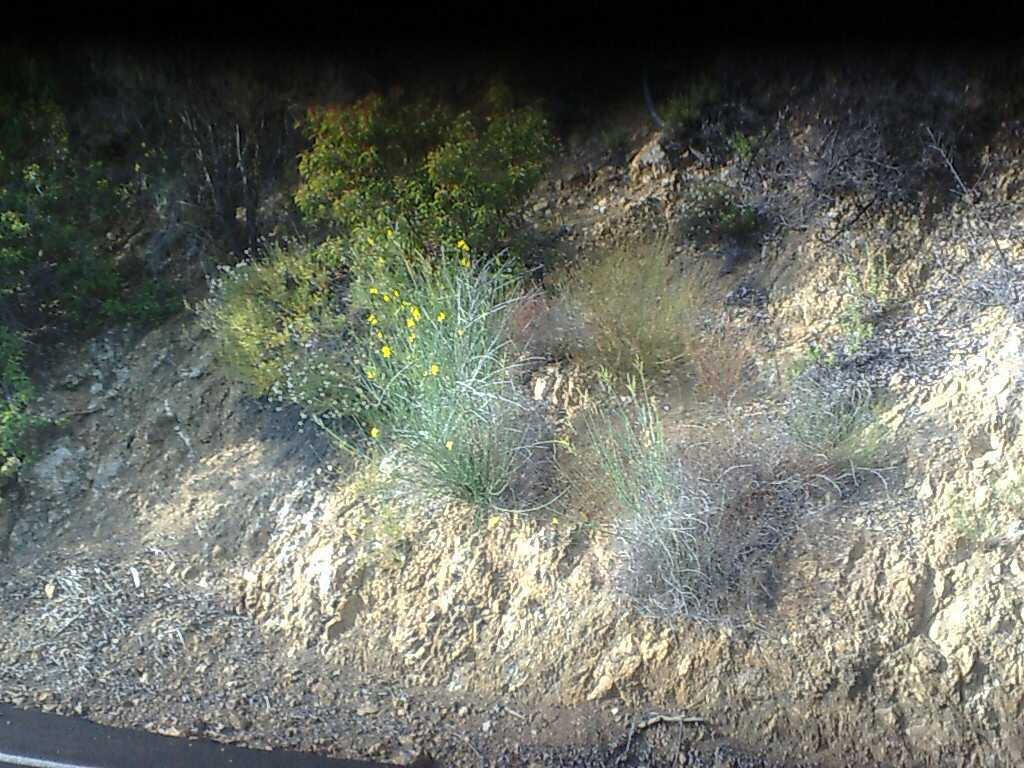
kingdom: Plantae
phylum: Tracheophyta
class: Magnoliopsida
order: Sapindales
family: Anacardiaceae
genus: Malosma
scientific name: Malosma laurina
